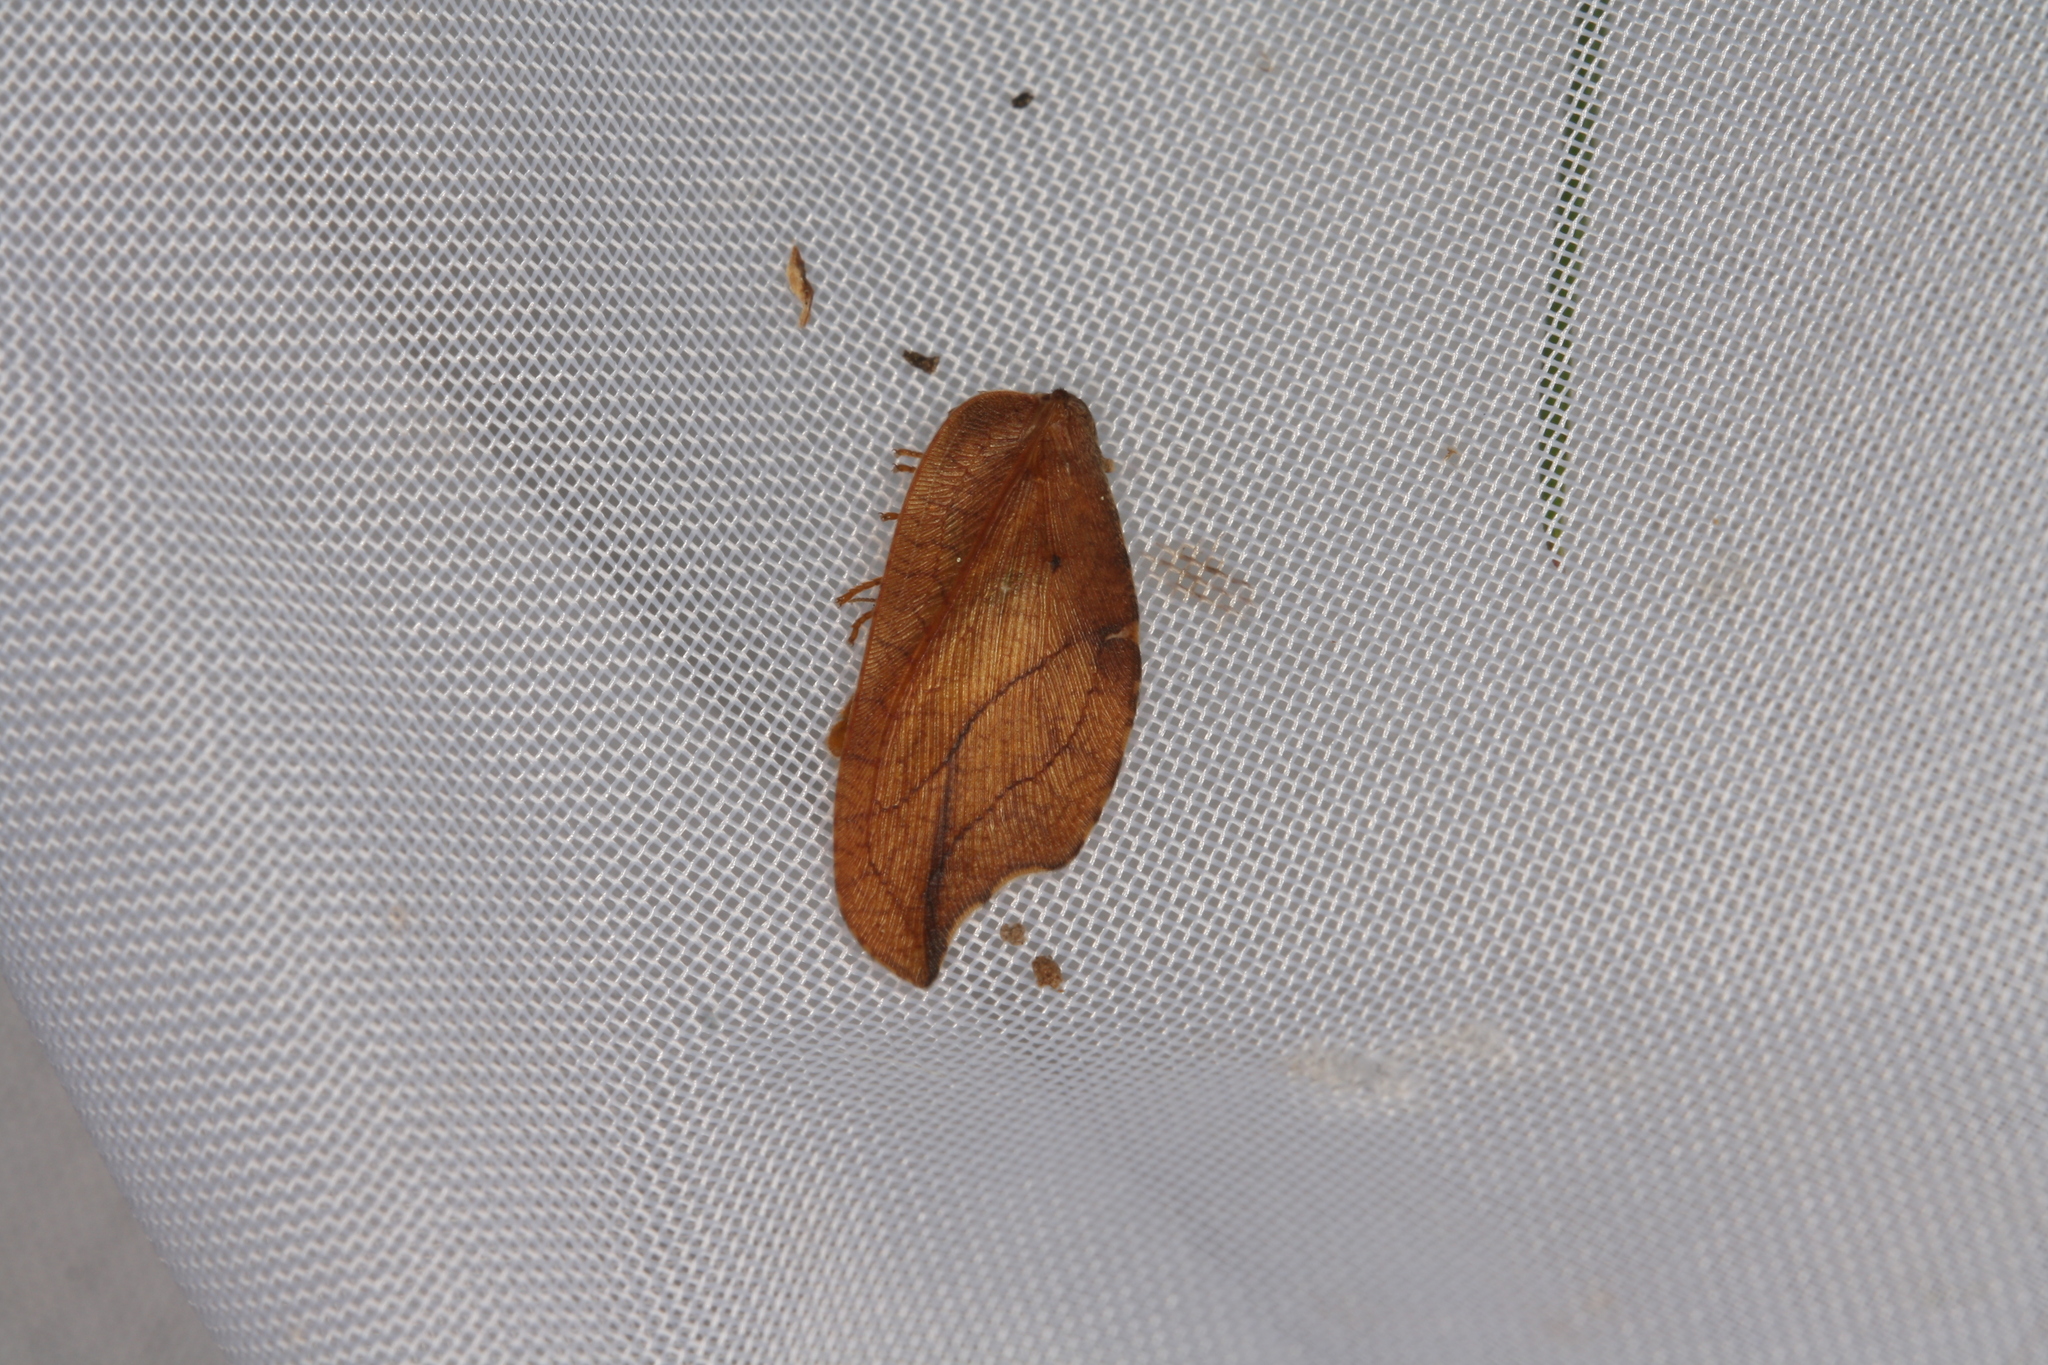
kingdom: Animalia
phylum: Arthropoda
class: Insecta
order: Neuroptera
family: Hemerobiidae
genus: Drepanepteryx
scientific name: Drepanepteryx phalaenoides
